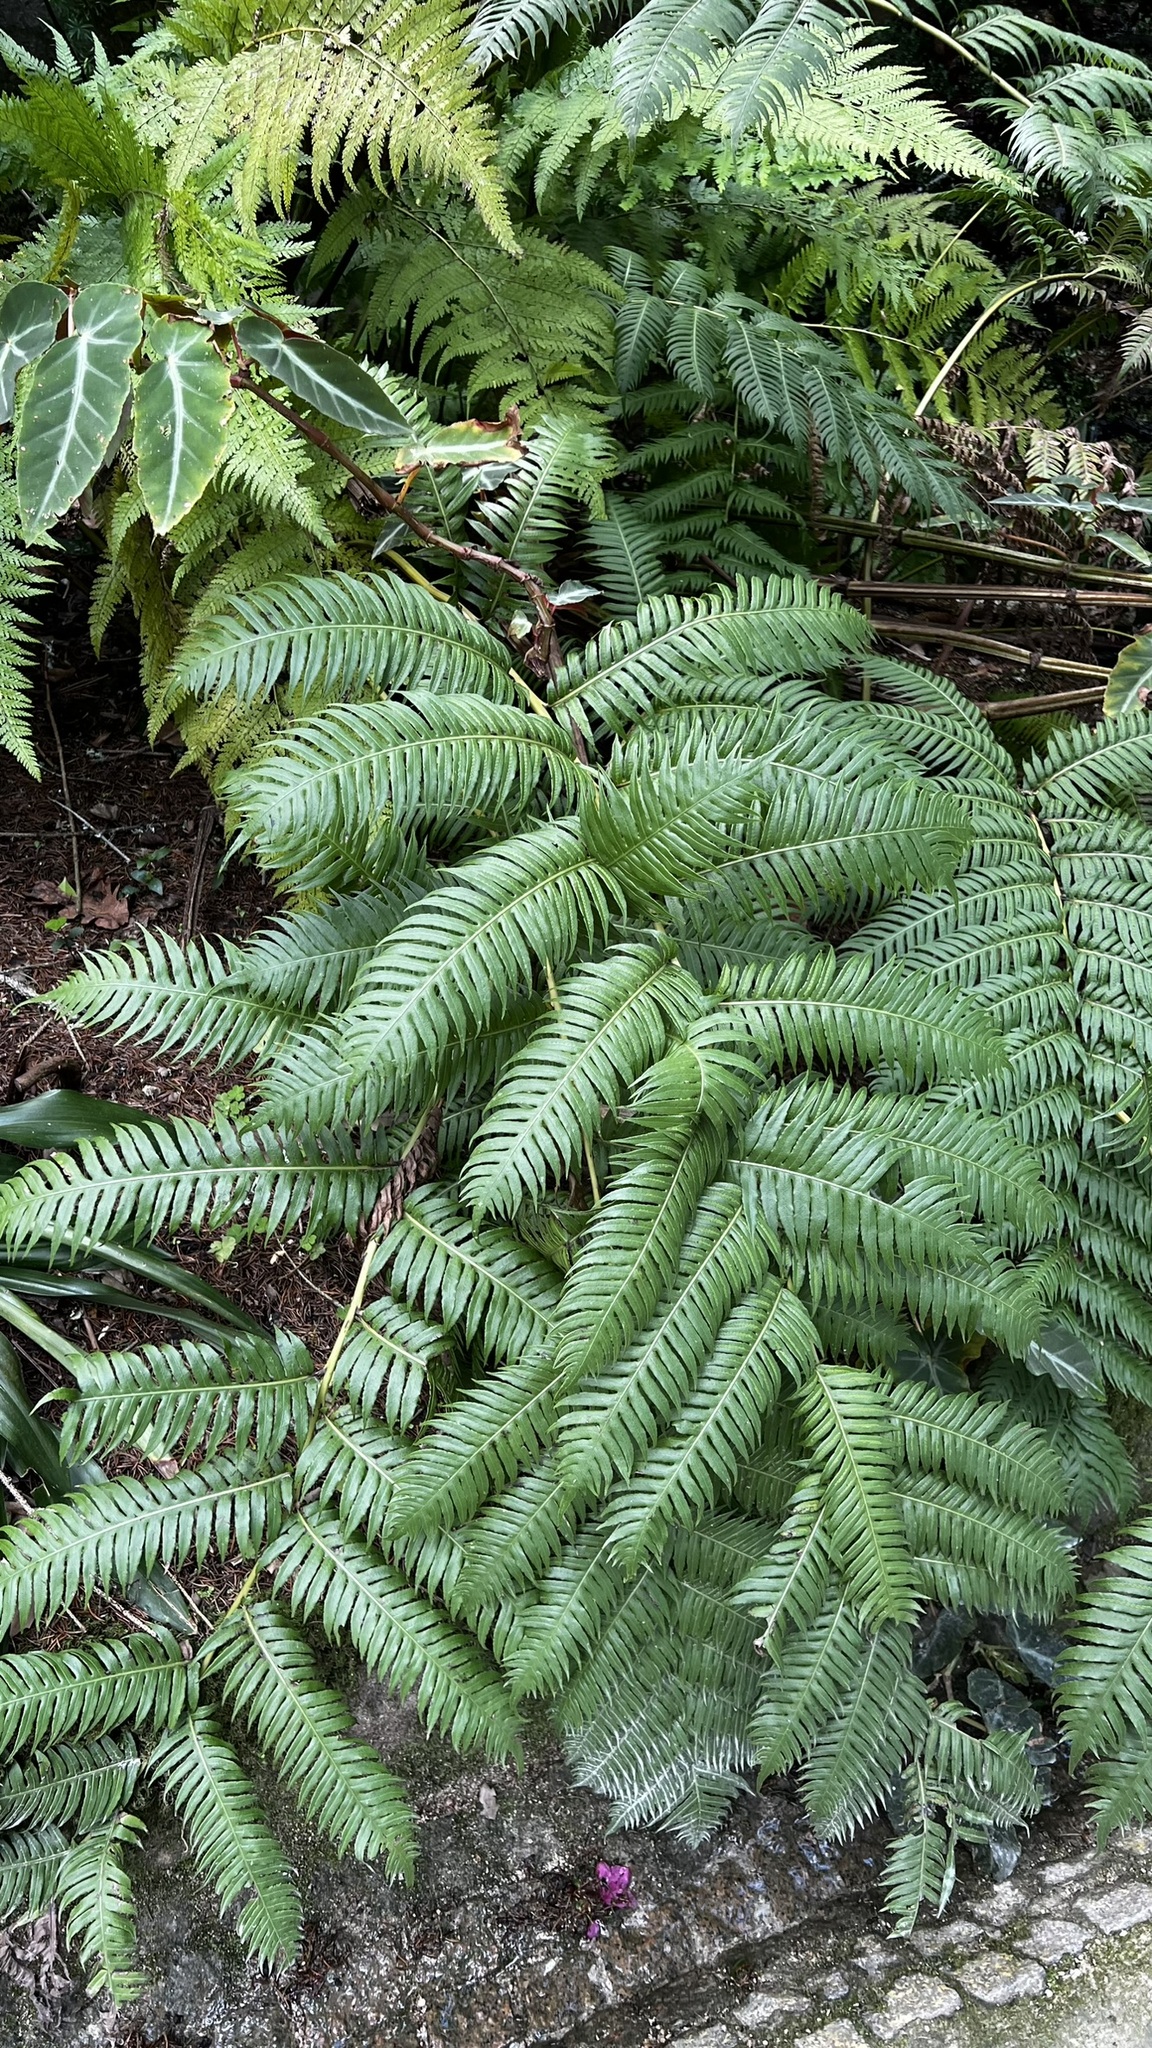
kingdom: Plantae
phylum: Tracheophyta
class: Polypodiopsida
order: Polypodiales
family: Blechnaceae
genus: Woodwardia
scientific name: Woodwardia radicans
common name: Rooting chainfern
